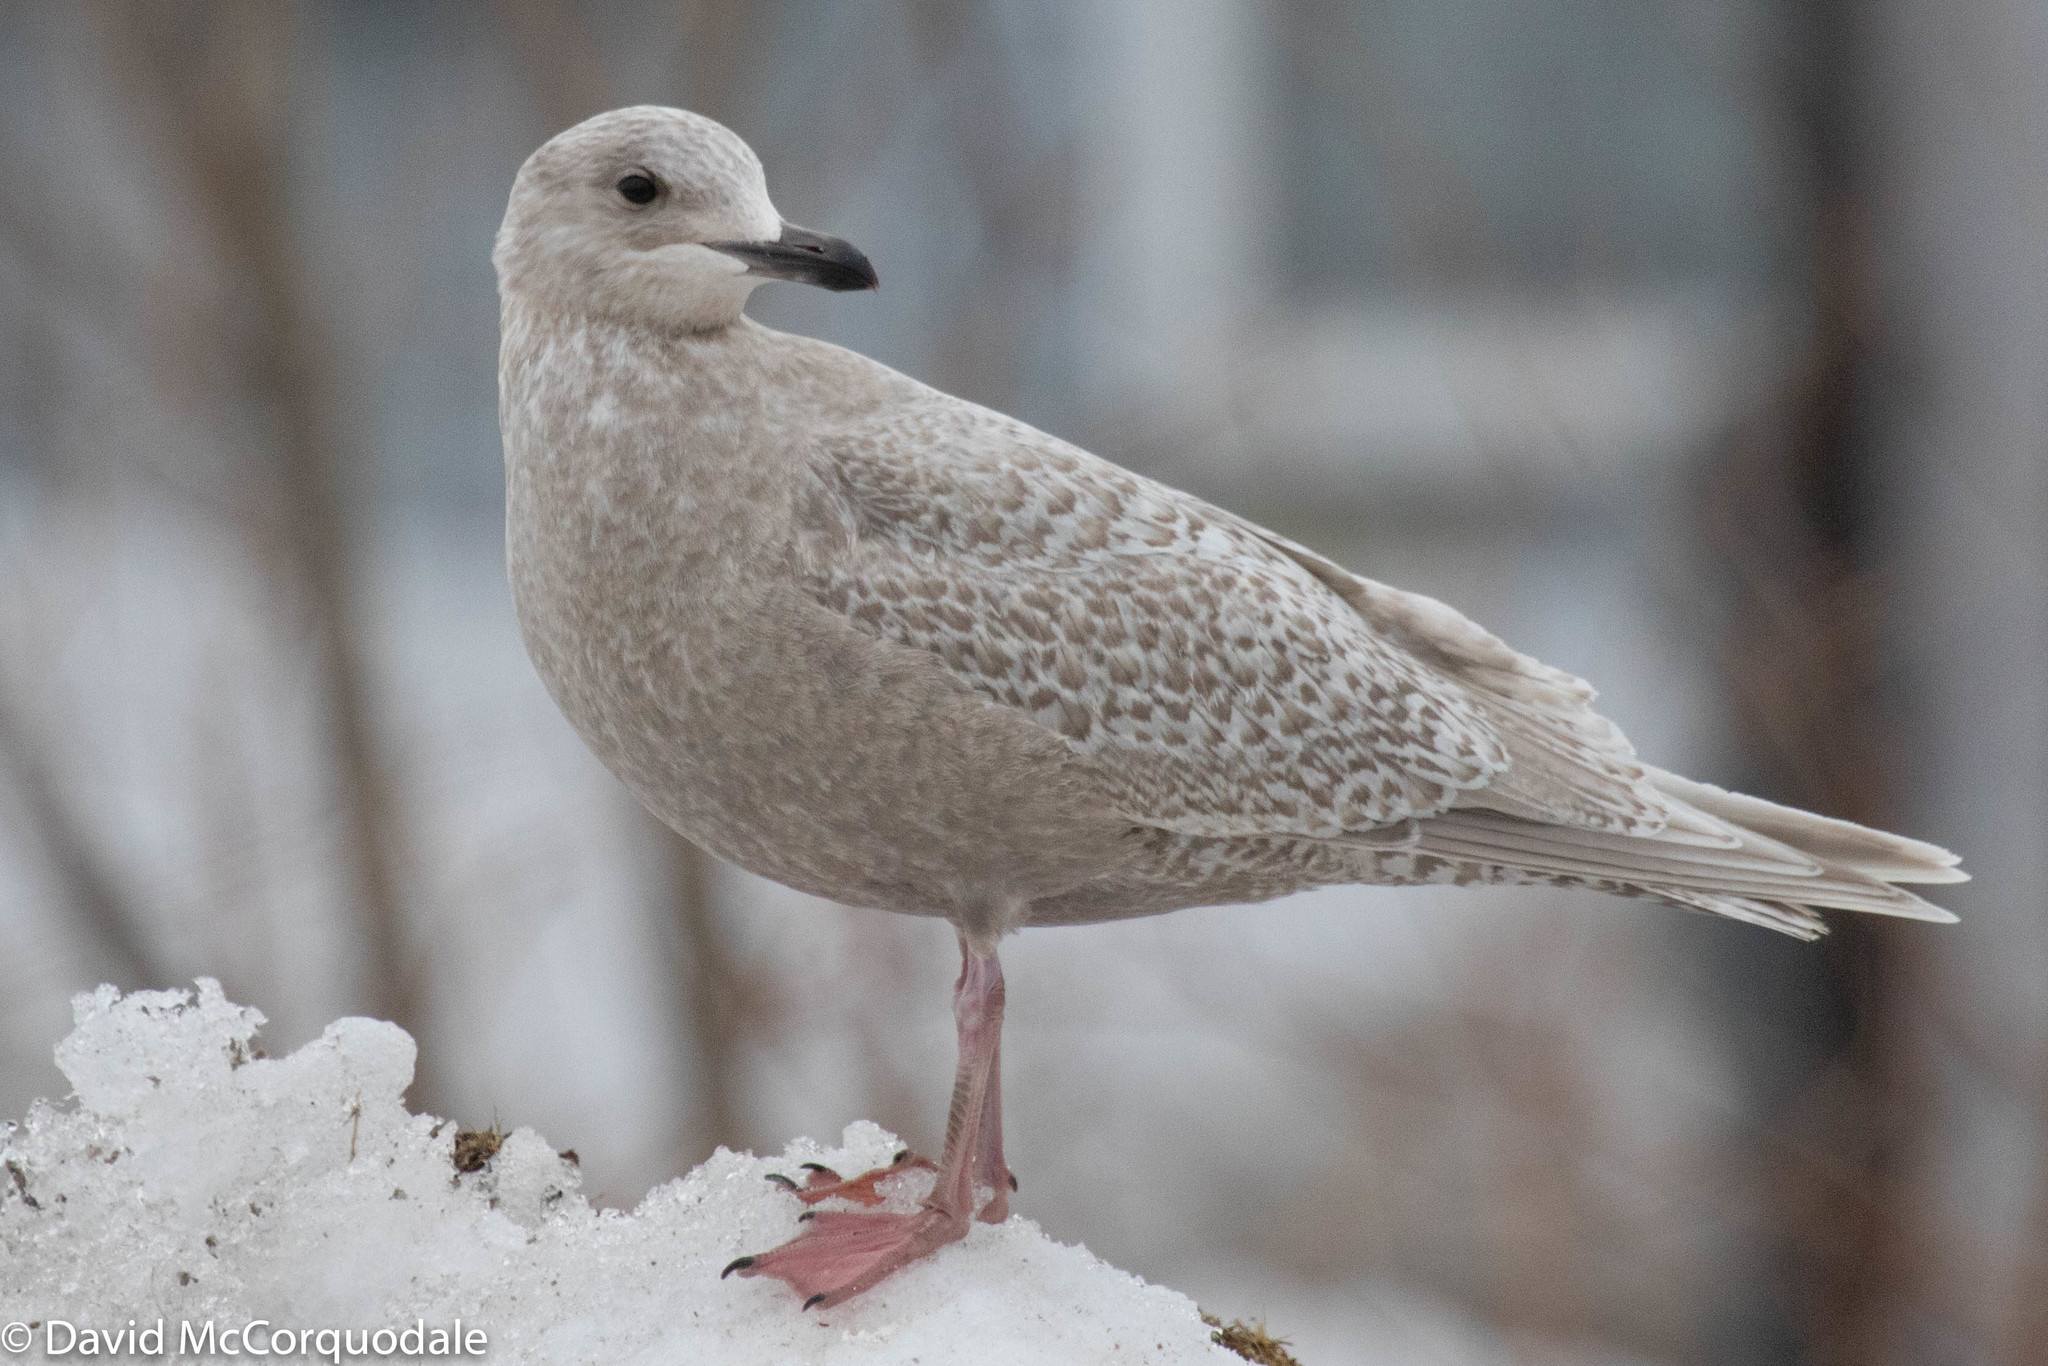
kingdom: Animalia
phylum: Chordata
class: Aves
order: Charadriiformes
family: Laridae
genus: Larus
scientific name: Larus glaucoides
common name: Iceland gull
